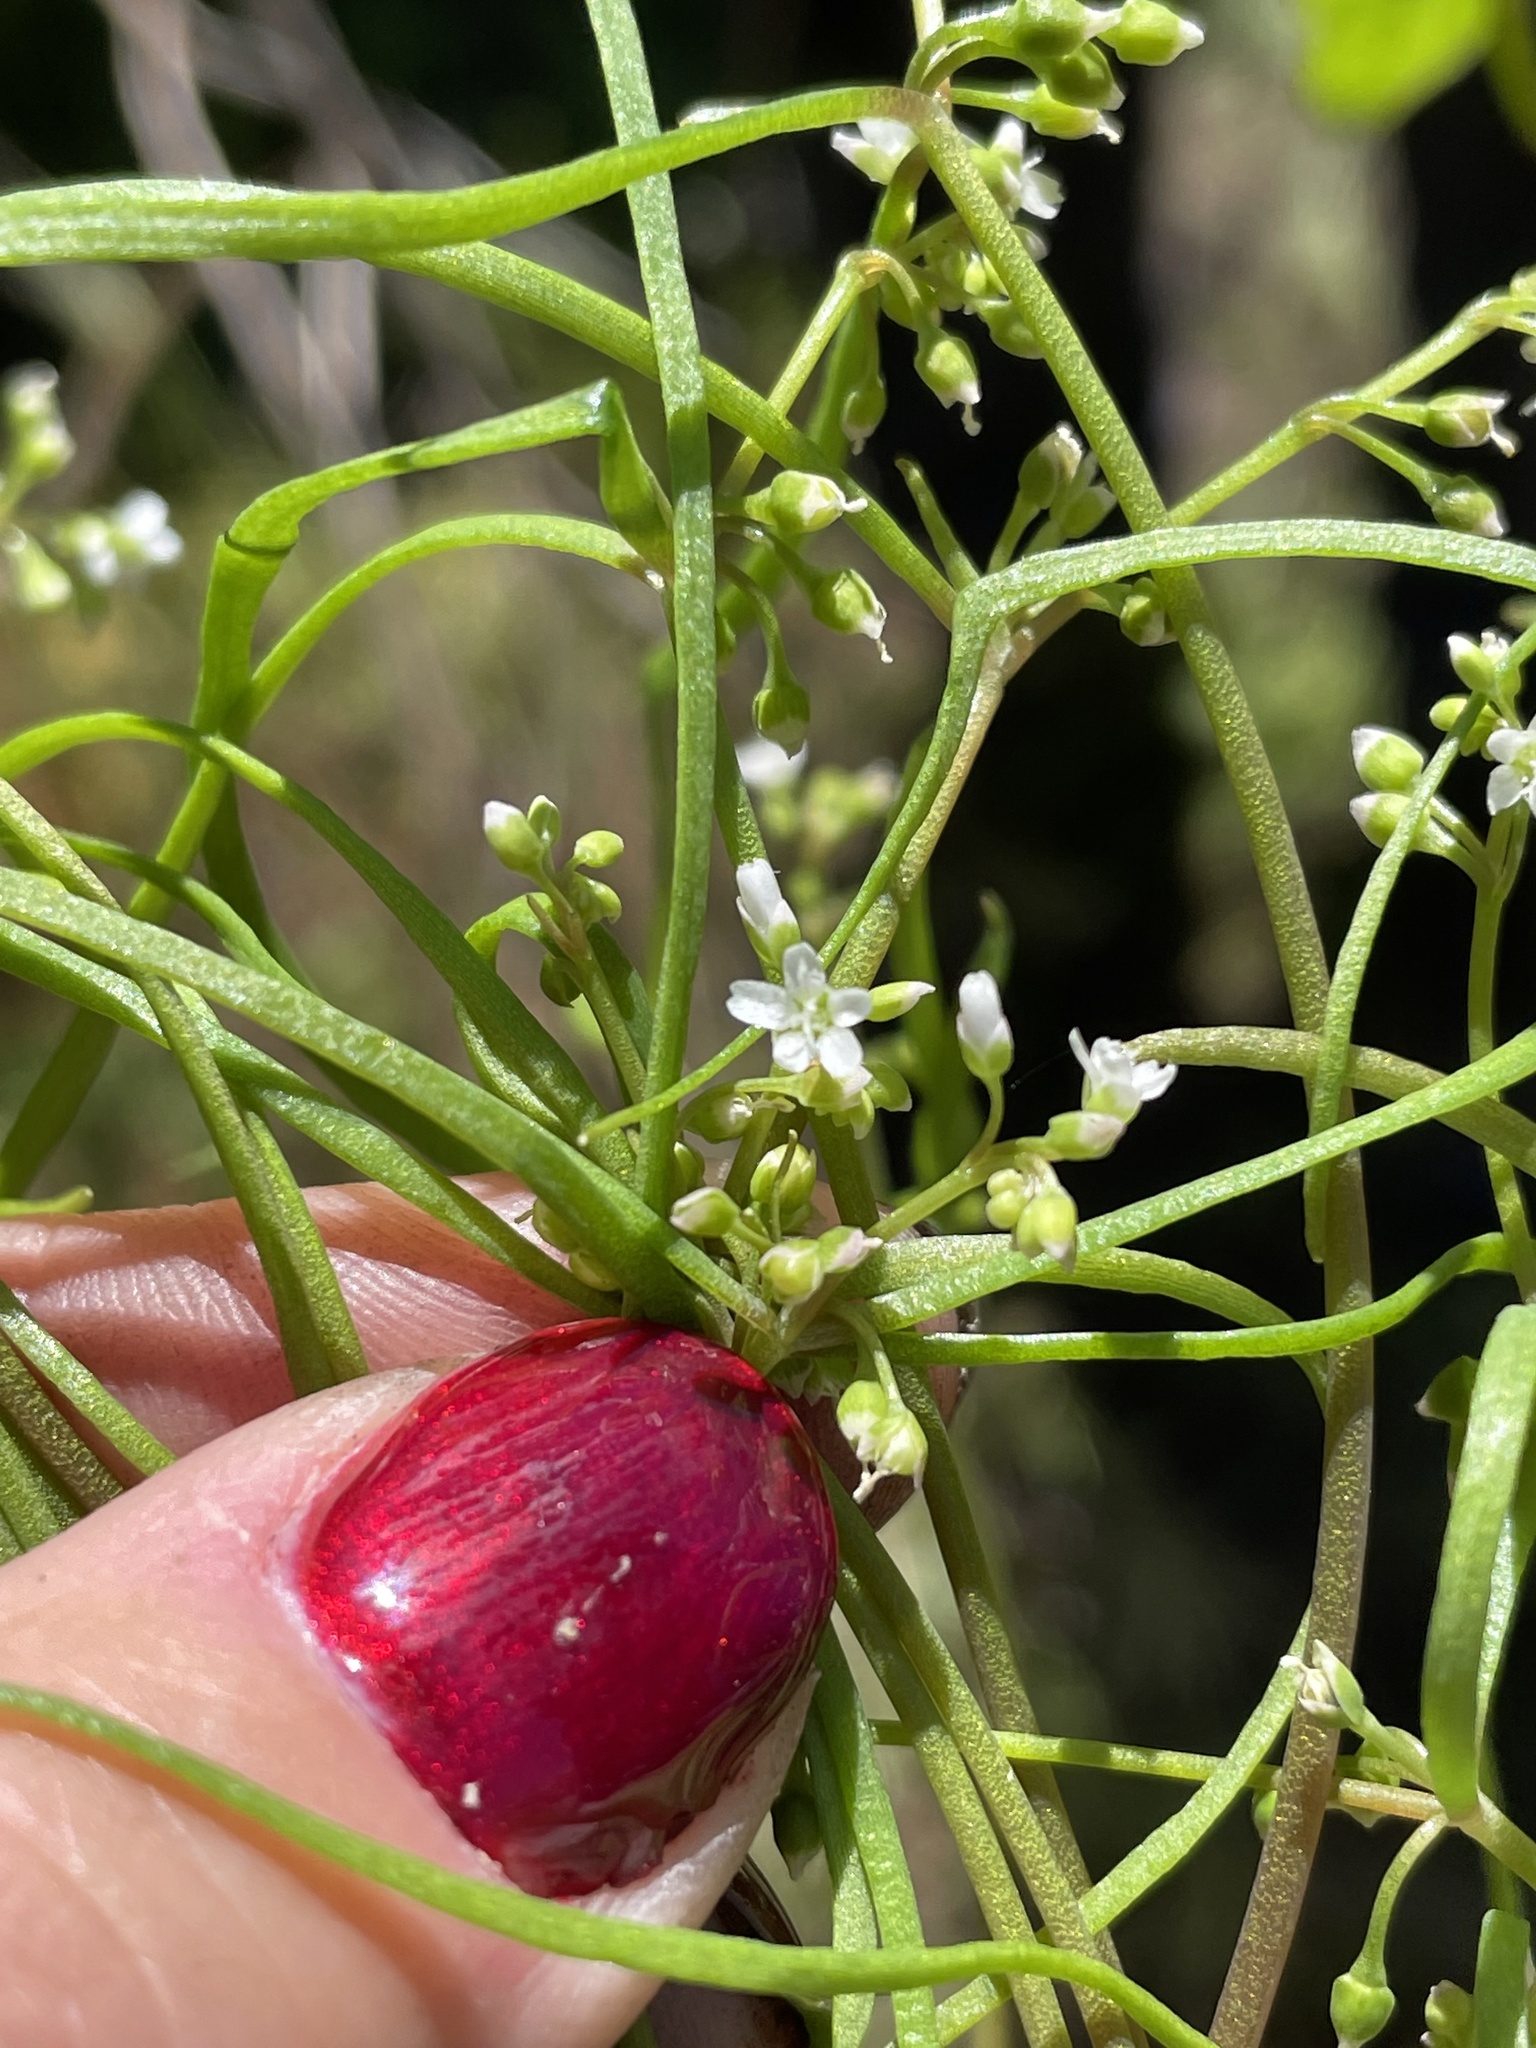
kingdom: Plantae
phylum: Tracheophyta
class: Magnoliopsida
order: Caryophyllales
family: Montiaceae
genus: Claytonia
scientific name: Claytonia parviflora
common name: Indian-lettuce
